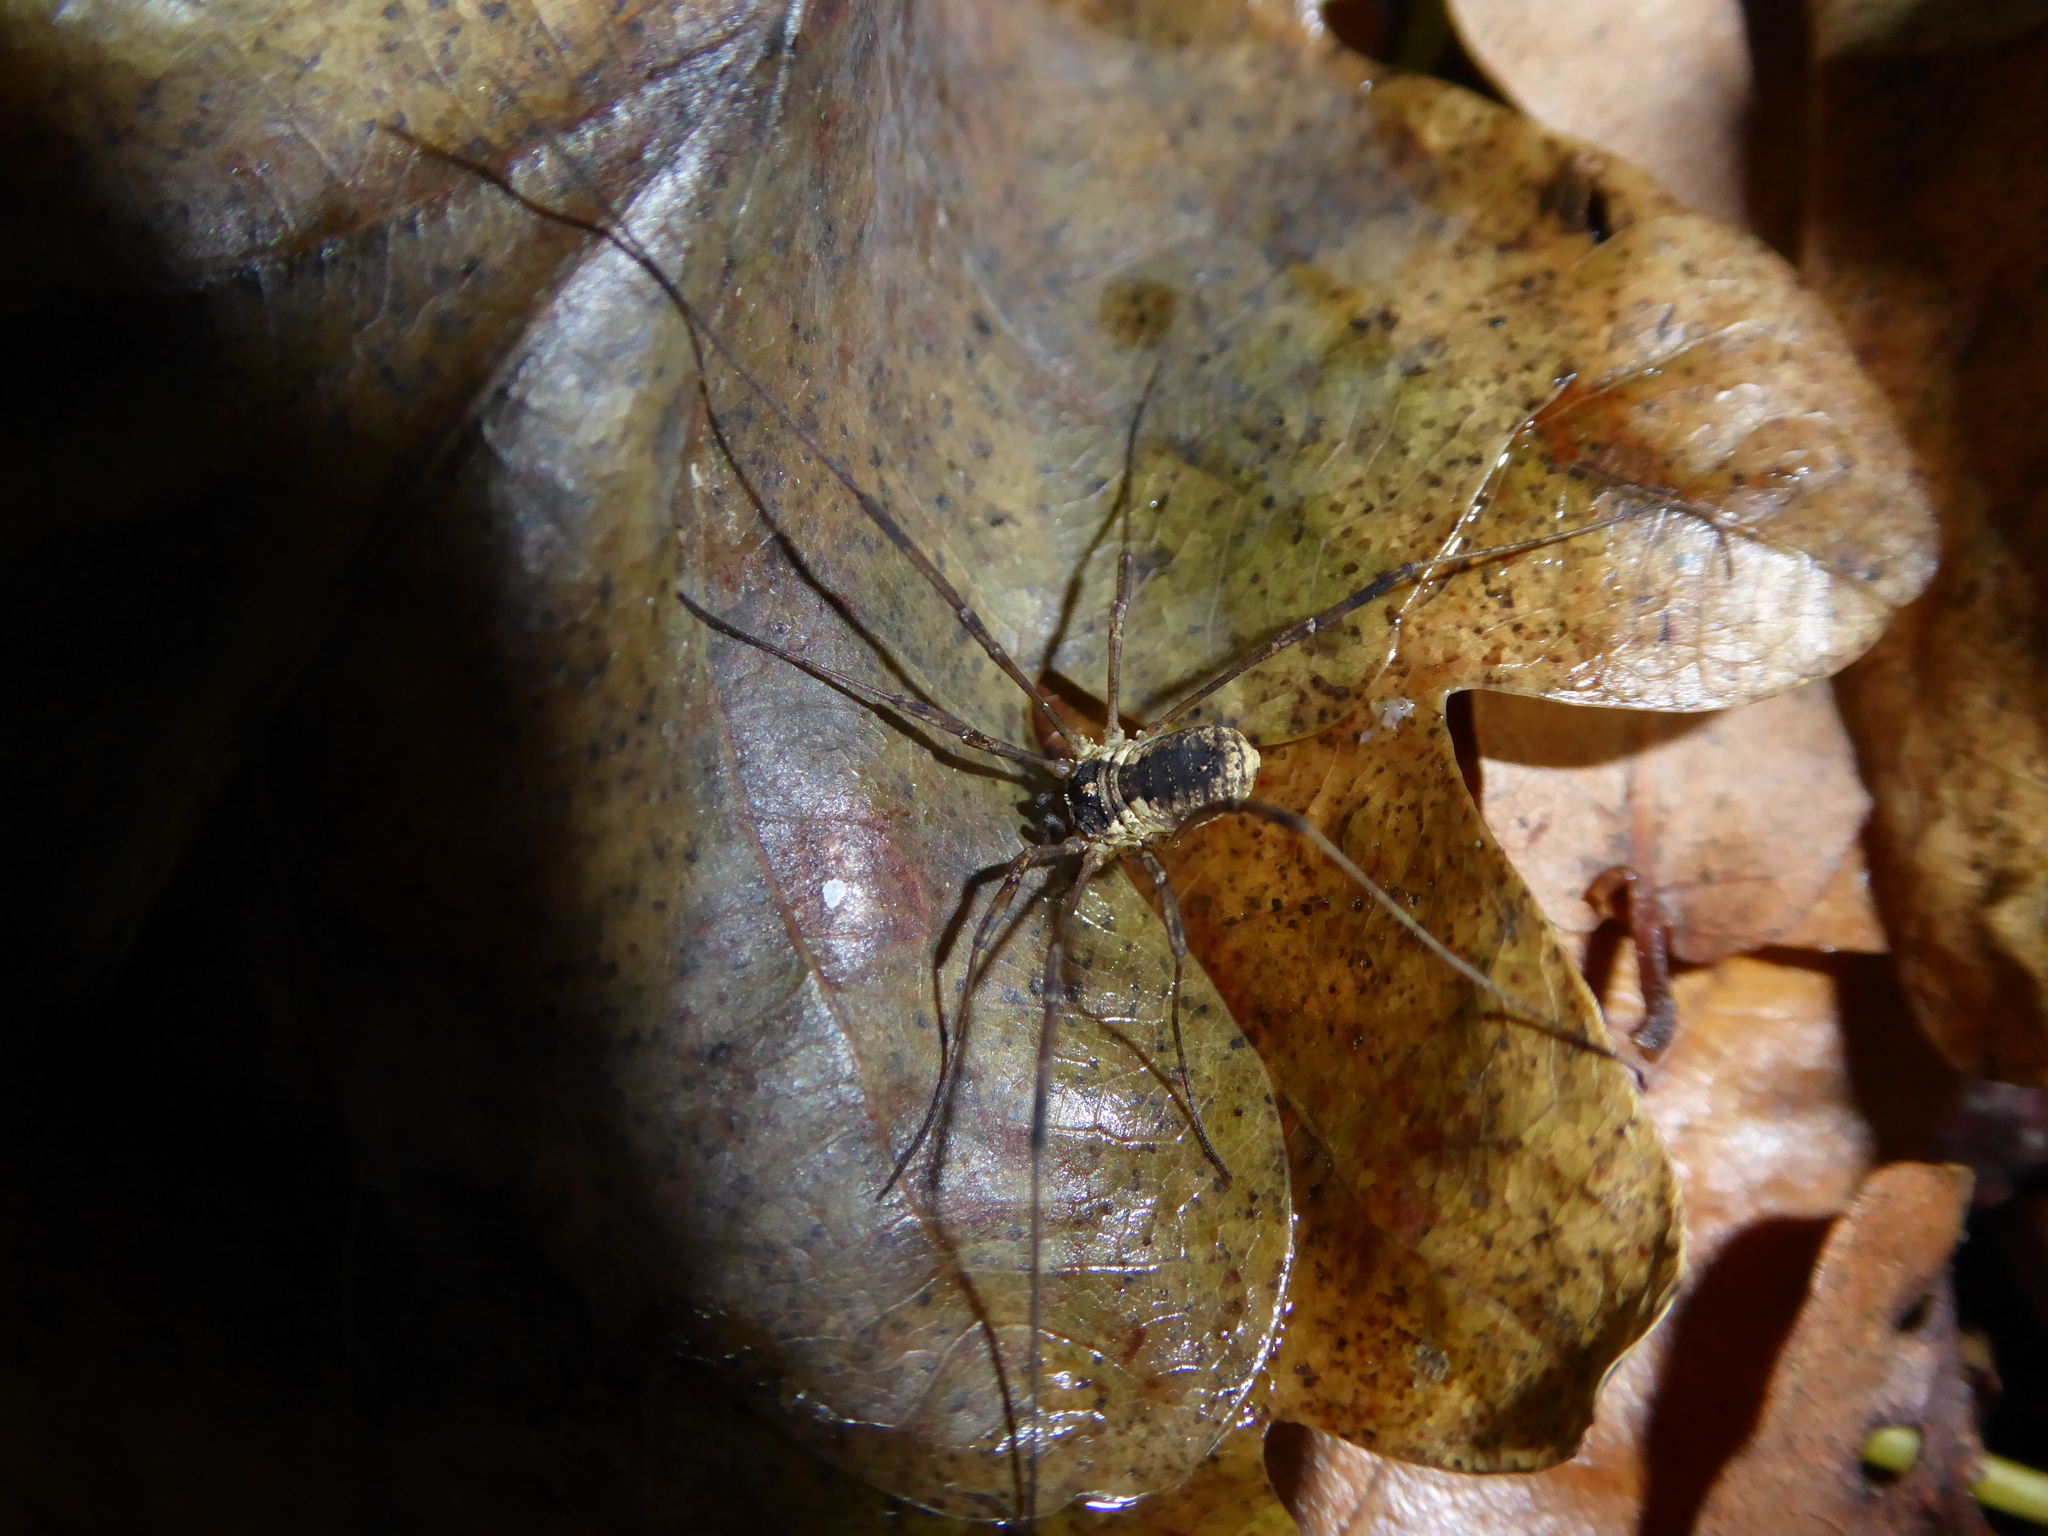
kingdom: Animalia
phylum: Arthropoda
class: Arachnida
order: Opiliones
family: Phalangiidae
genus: Oligolophus
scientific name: Oligolophus tridens
